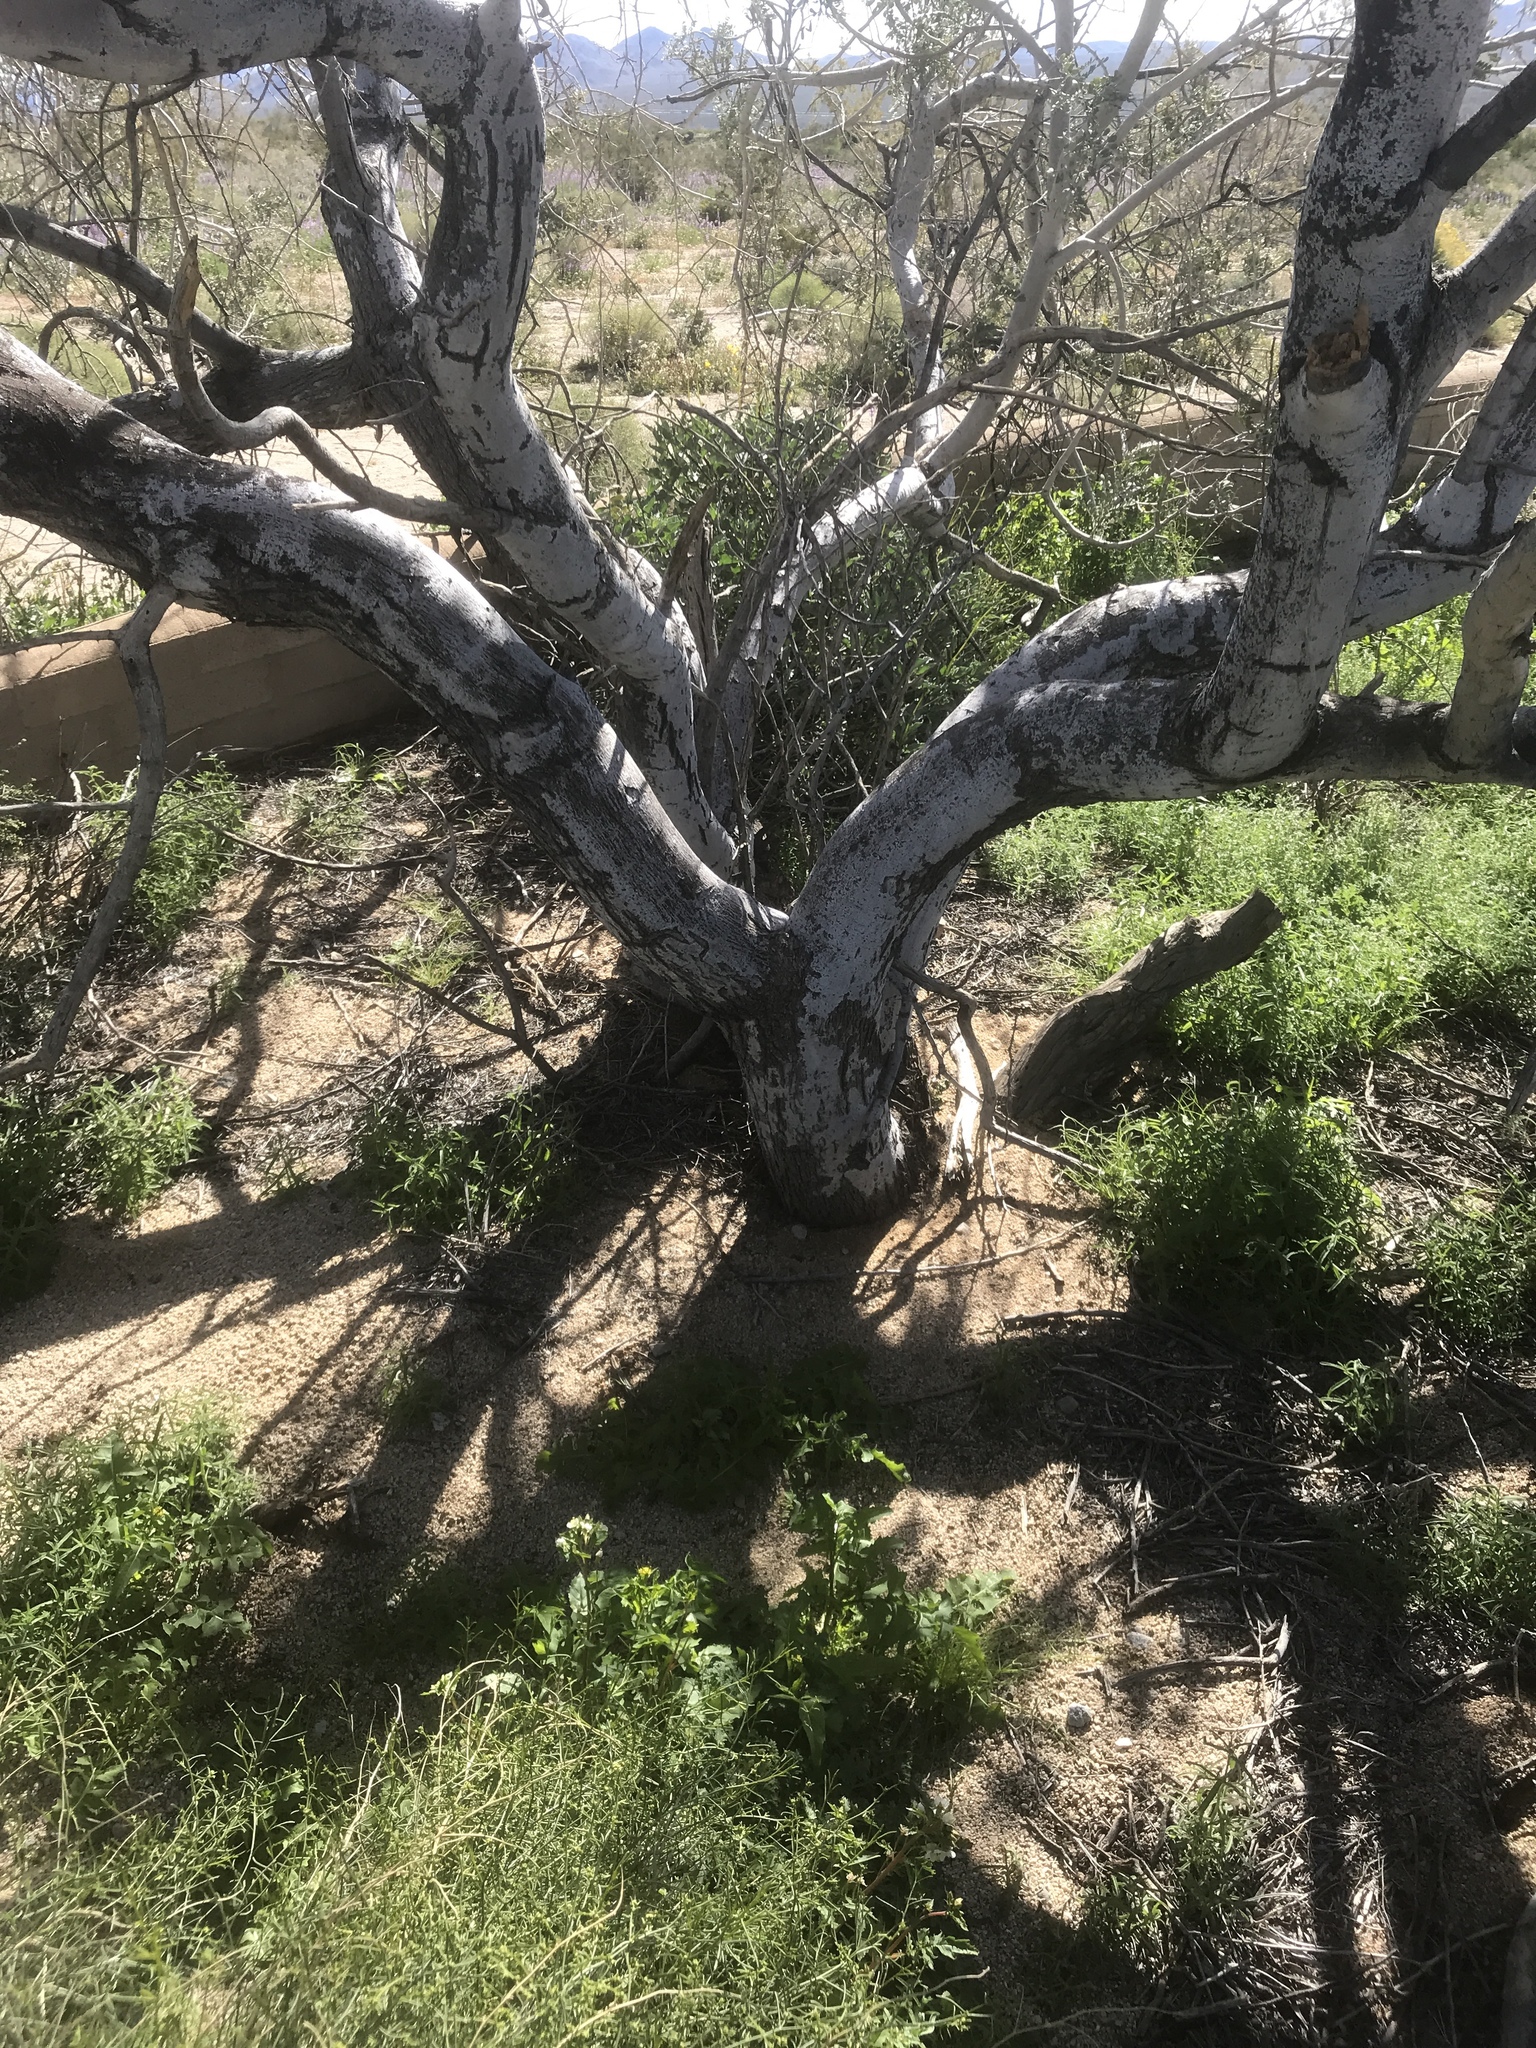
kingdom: Plantae
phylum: Tracheophyta
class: Magnoliopsida
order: Fabales
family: Fabaceae
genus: Olneya
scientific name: Olneya tesota
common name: Desert ironwood
